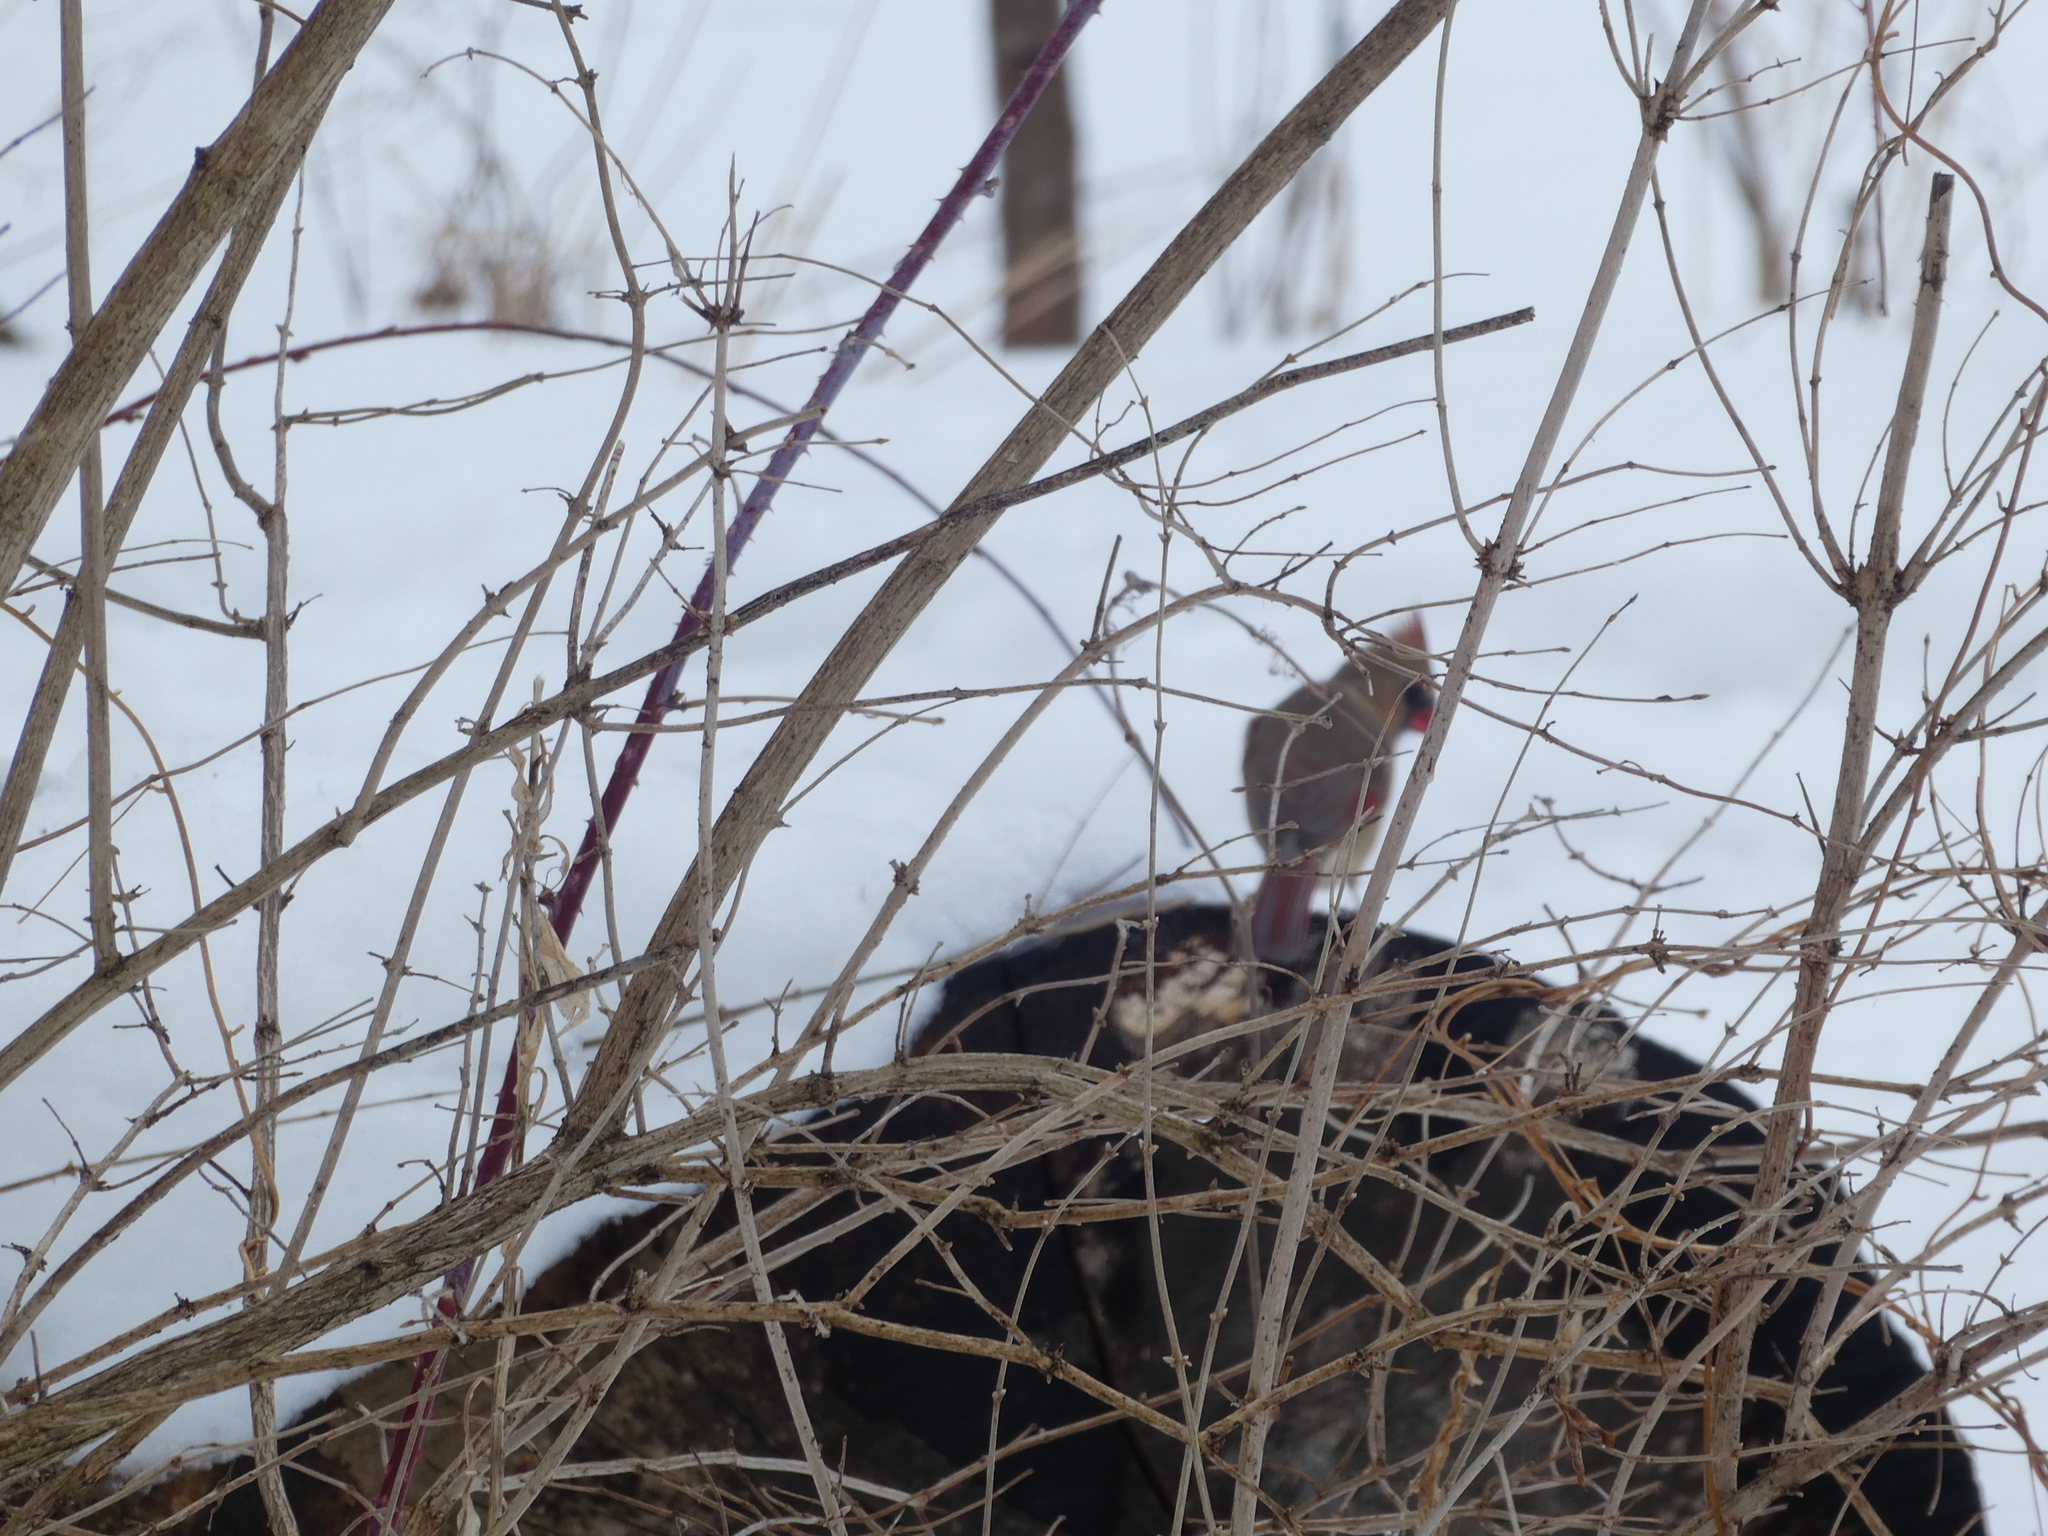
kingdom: Animalia
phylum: Chordata
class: Aves
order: Passeriformes
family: Cardinalidae
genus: Cardinalis
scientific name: Cardinalis cardinalis
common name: Northern cardinal
